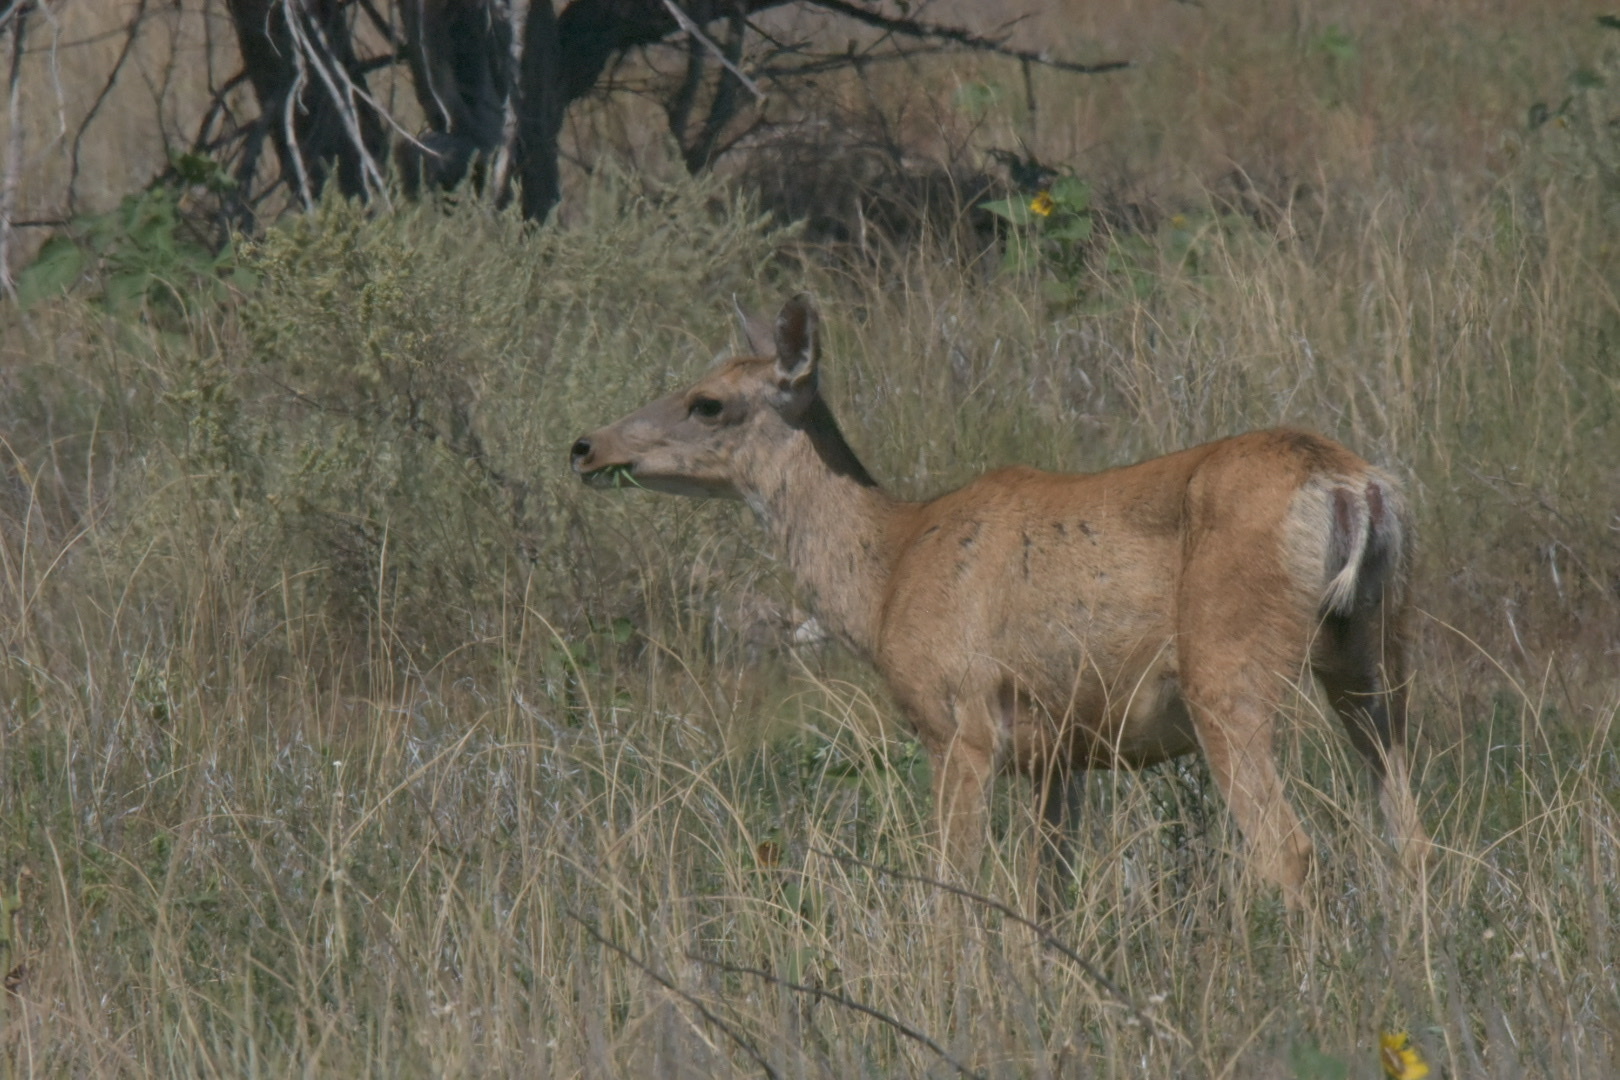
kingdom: Animalia
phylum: Chordata
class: Mammalia
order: Artiodactyla
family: Cervidae
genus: Odocoileus
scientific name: Odocoileus hemionus
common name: Mule deer
